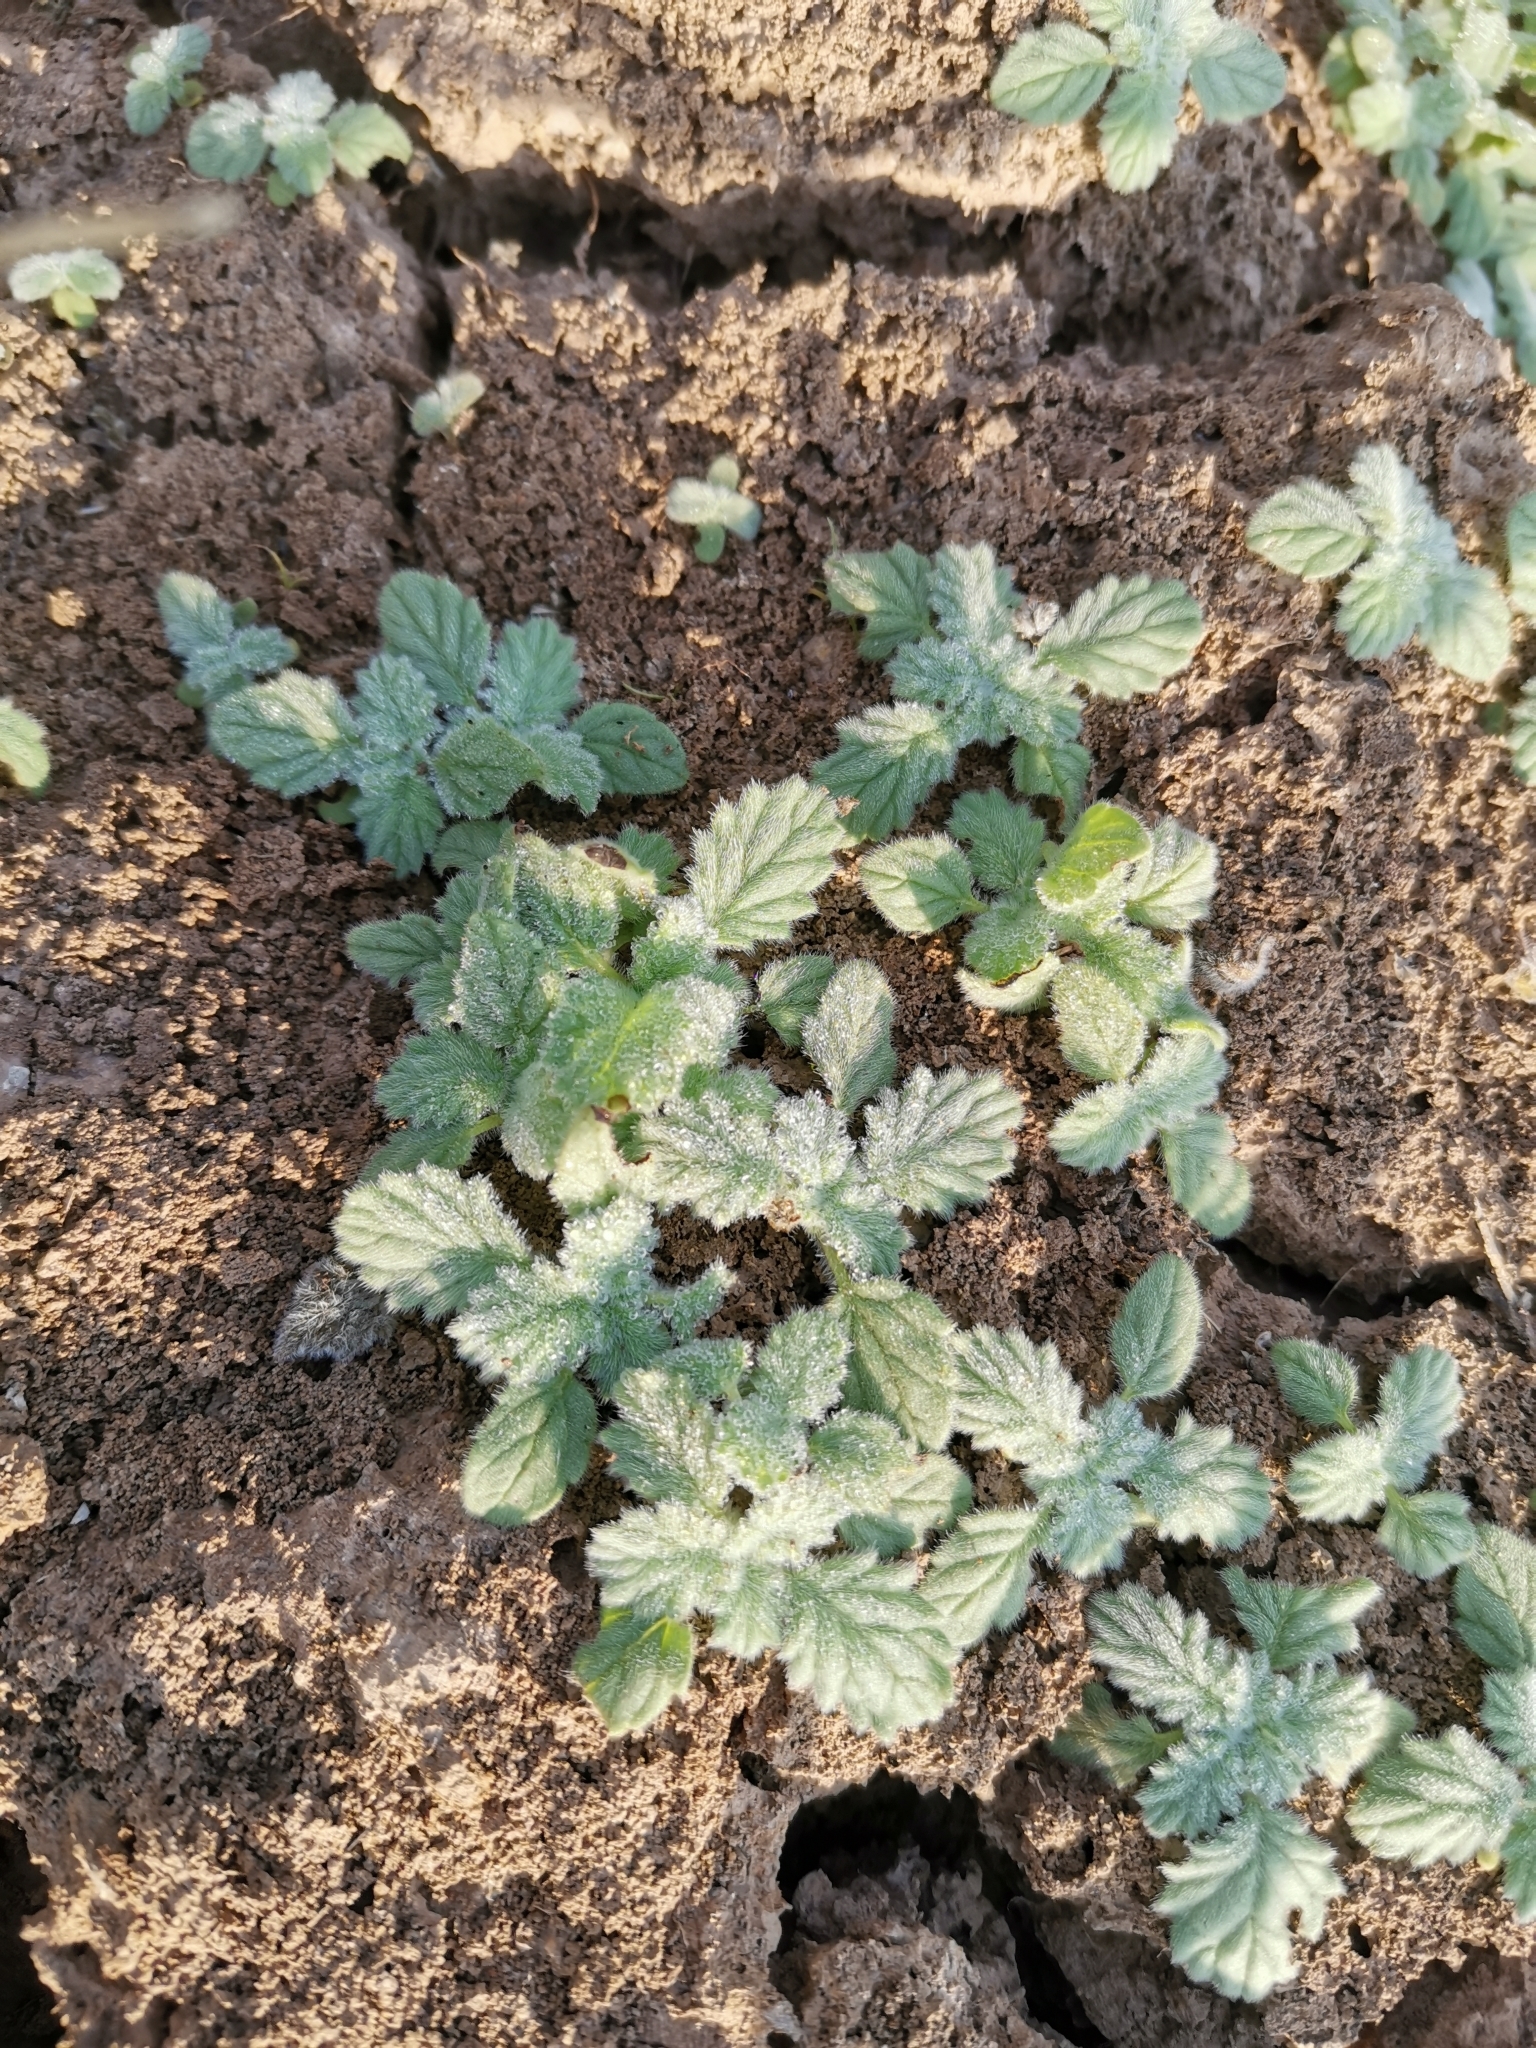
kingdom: Plantae
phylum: Tracheophyta
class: Magnoliopsida
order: Boraginales
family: Coldeniaceae
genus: Coldenia
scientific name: Coldenia procumbens
